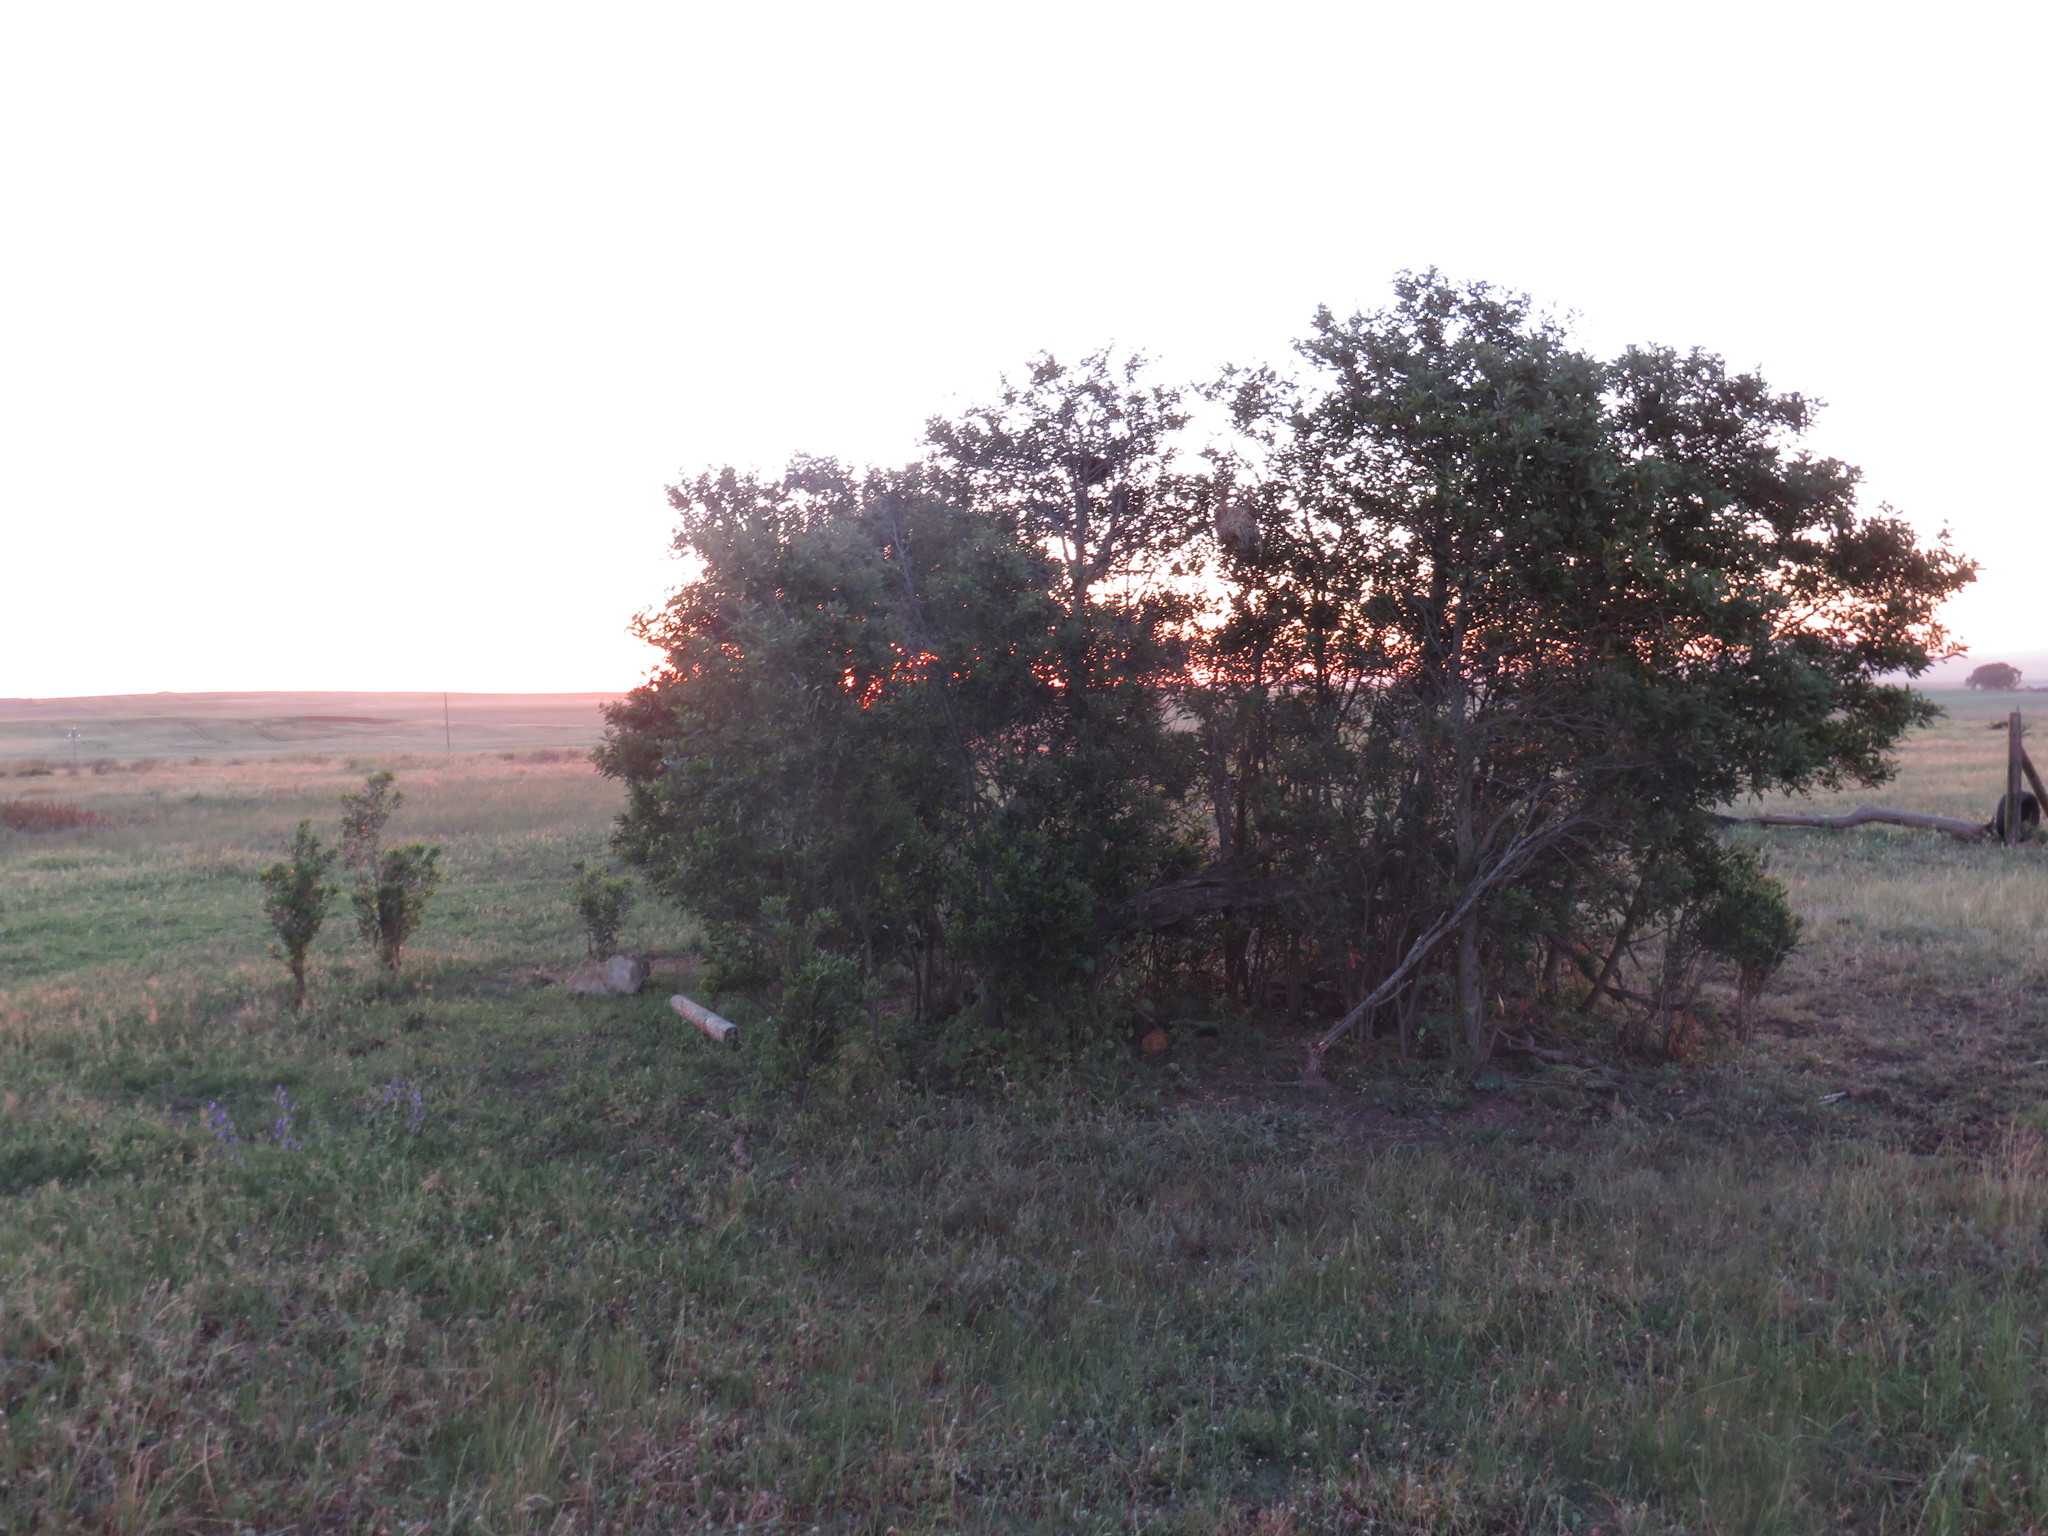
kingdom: Plantae
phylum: Tracheophyta
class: Magnoliopsida
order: Fabales
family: Fabaceae
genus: Acacia
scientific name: Acacia melanoxylon
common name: Blackwood
